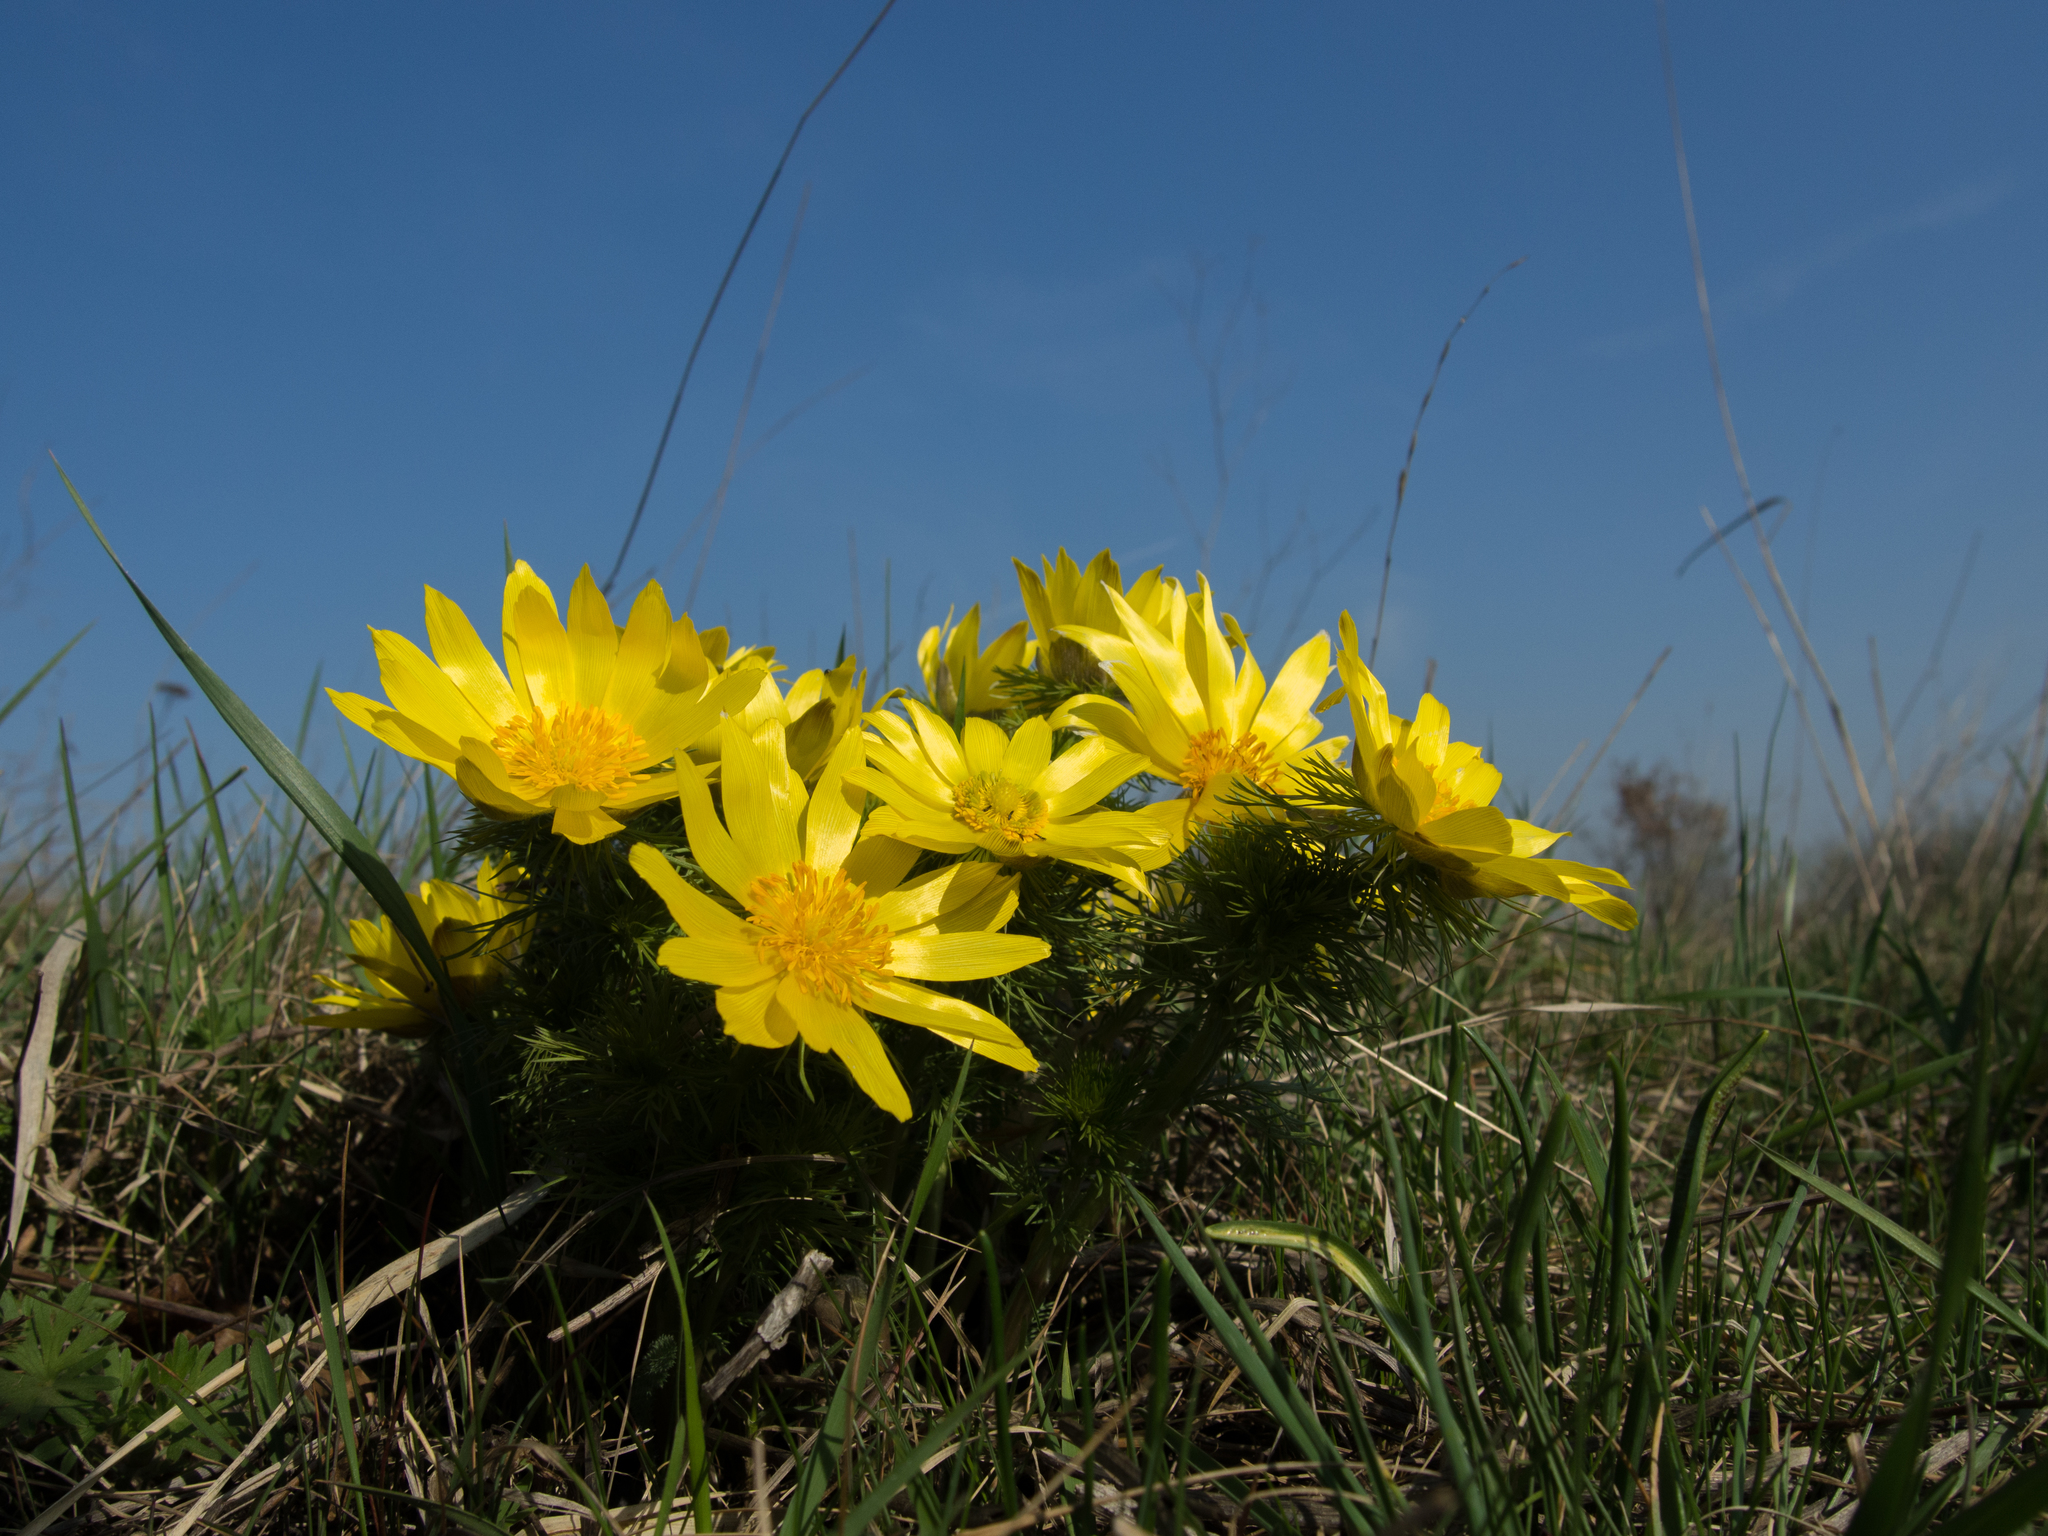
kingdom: Plantae
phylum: Tracheophyta
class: Magnoliopsida
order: Ranunculales
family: Ranunculaceae
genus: Adonis
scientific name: Adonis vernalis
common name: Yellow pheasants-eye
